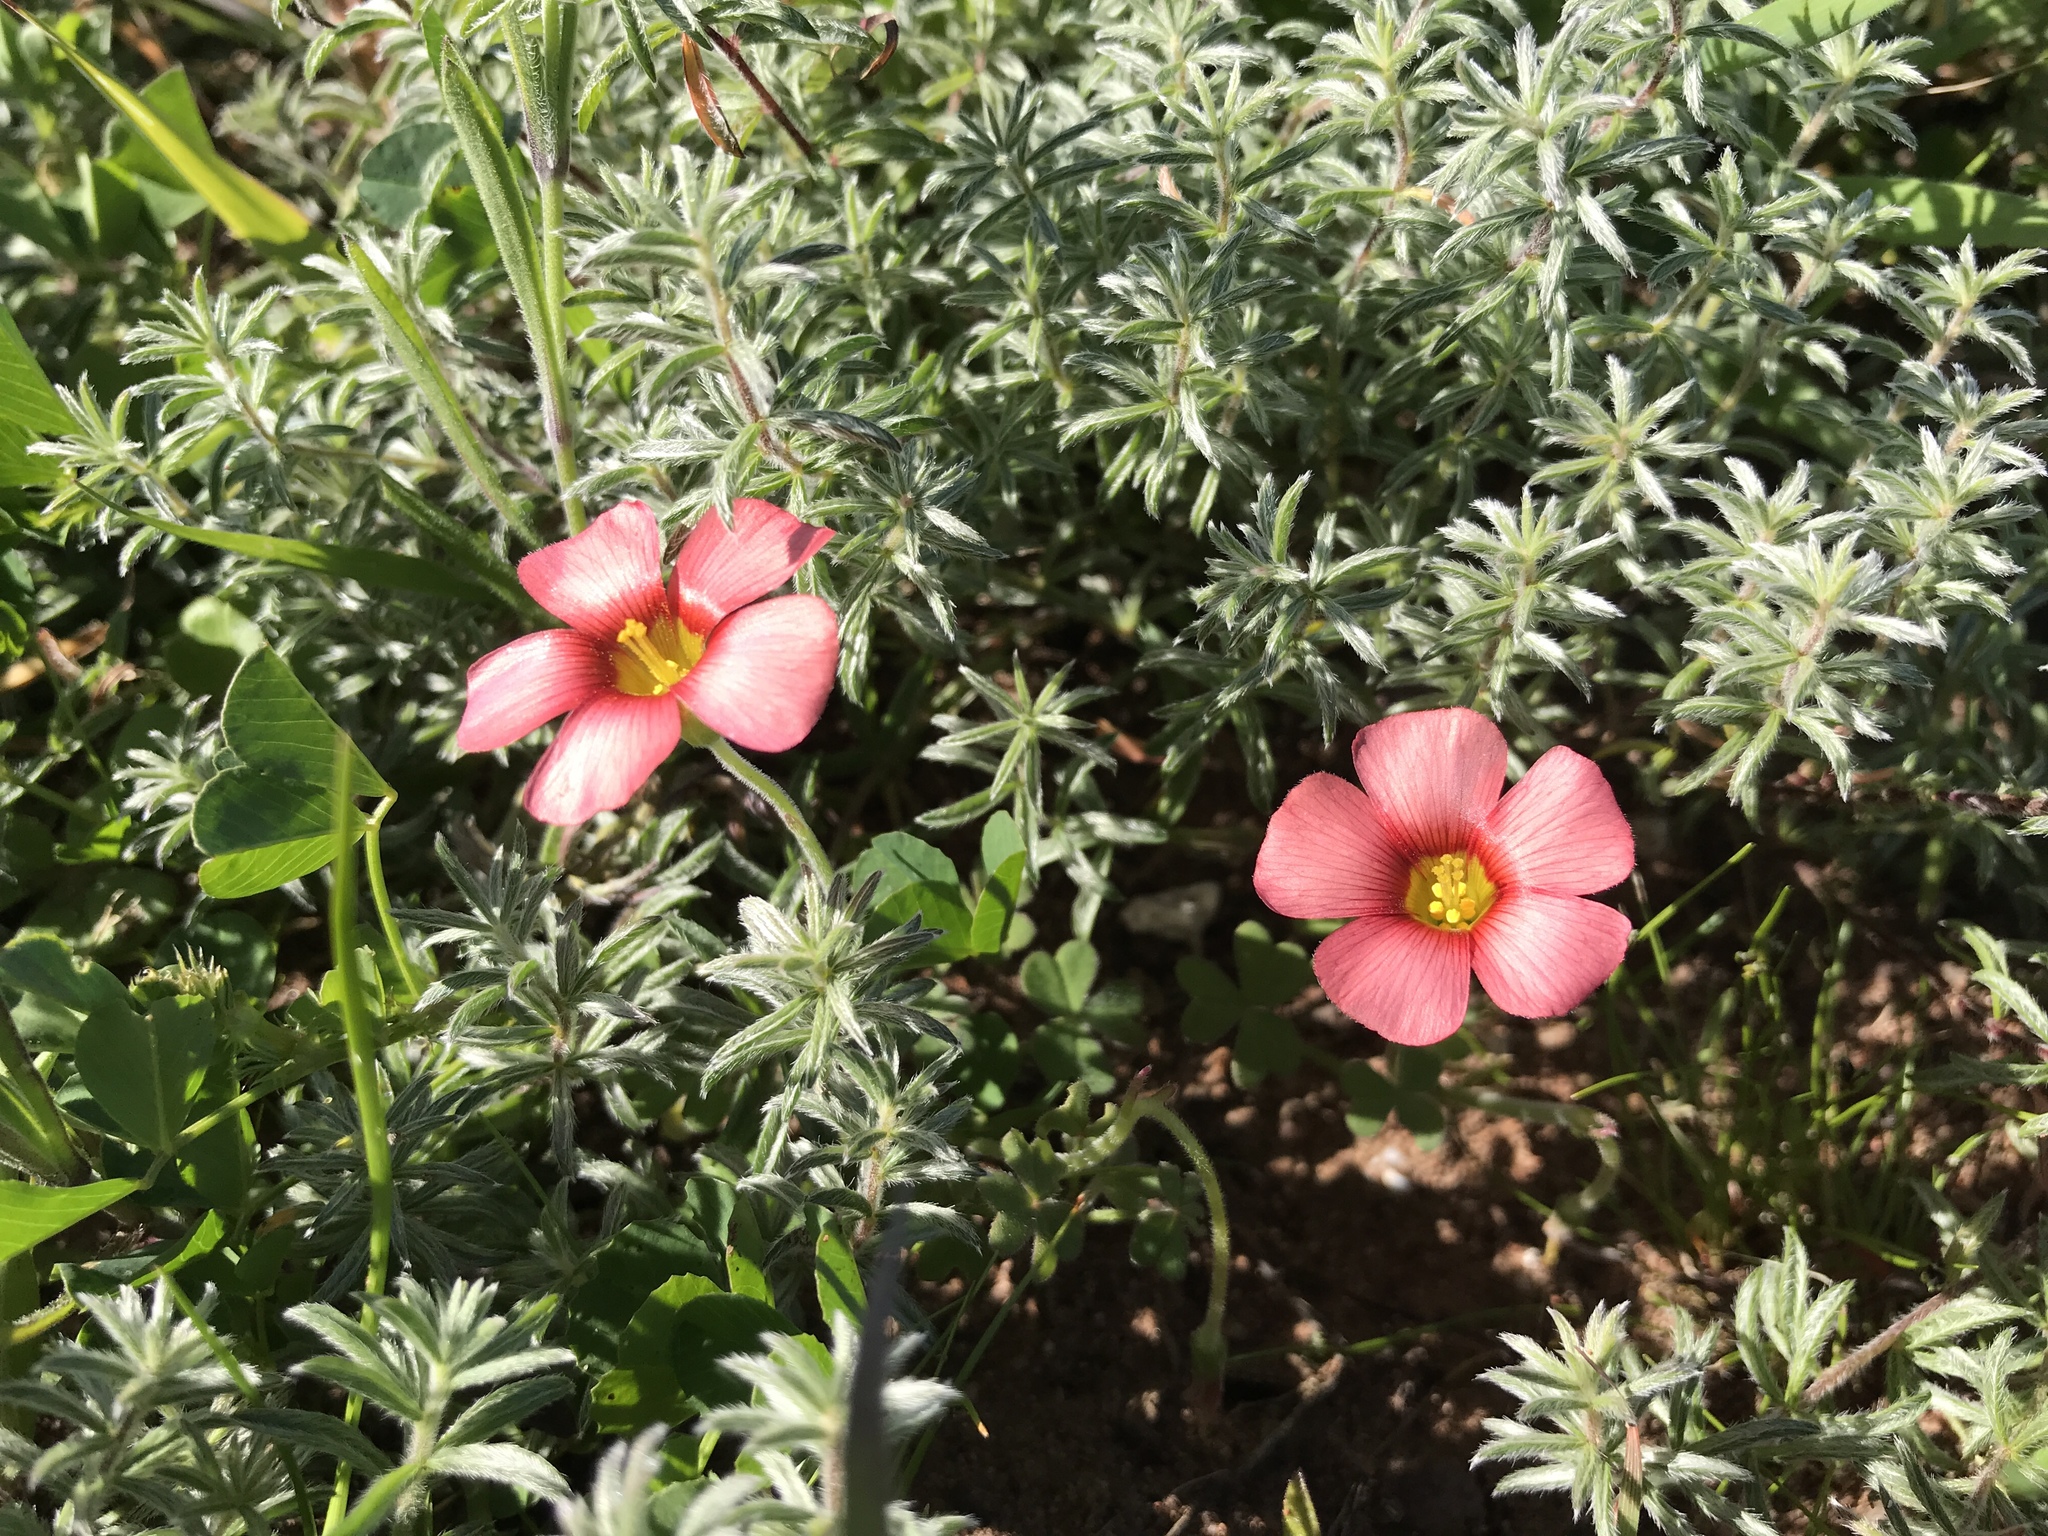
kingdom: Plantae
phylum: Tracheophyta
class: Magnoliopsida
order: Oxalidales
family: Oxalidaceae
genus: Oxalis
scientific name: Oxalis obtusa
